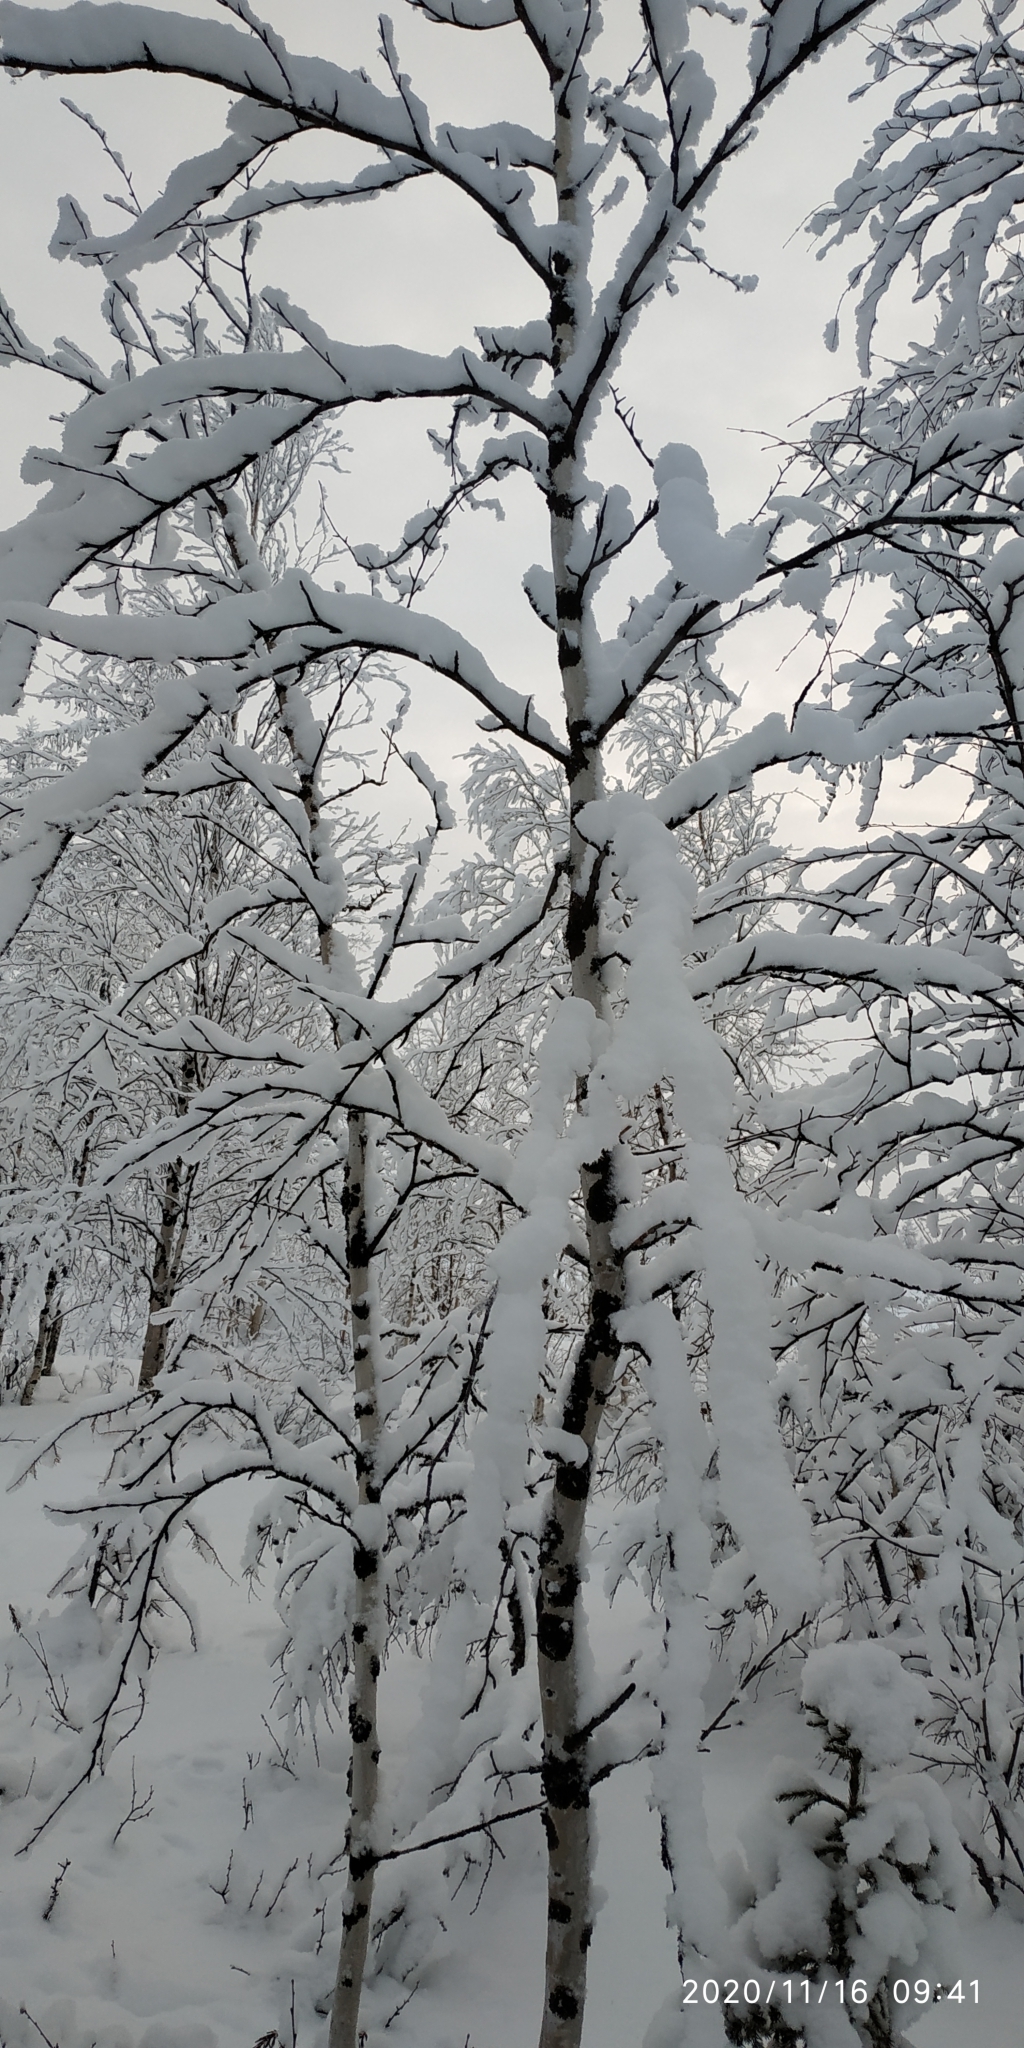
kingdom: Plantae
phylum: Tracheophyta
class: Magnoliopsida
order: Fagales
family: Betulaceae
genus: Betula
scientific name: Betula pubescens
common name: Downy birch
